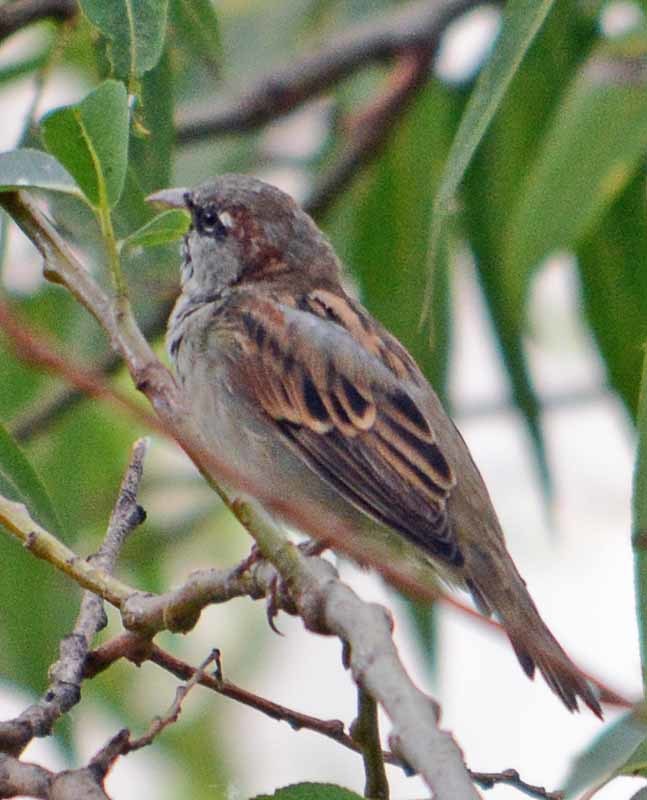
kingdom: Animalia
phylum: Chordata
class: Aves
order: Passeriformes
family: Passeridae
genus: Passer
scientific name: Passer domesticus
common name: House sparrow
